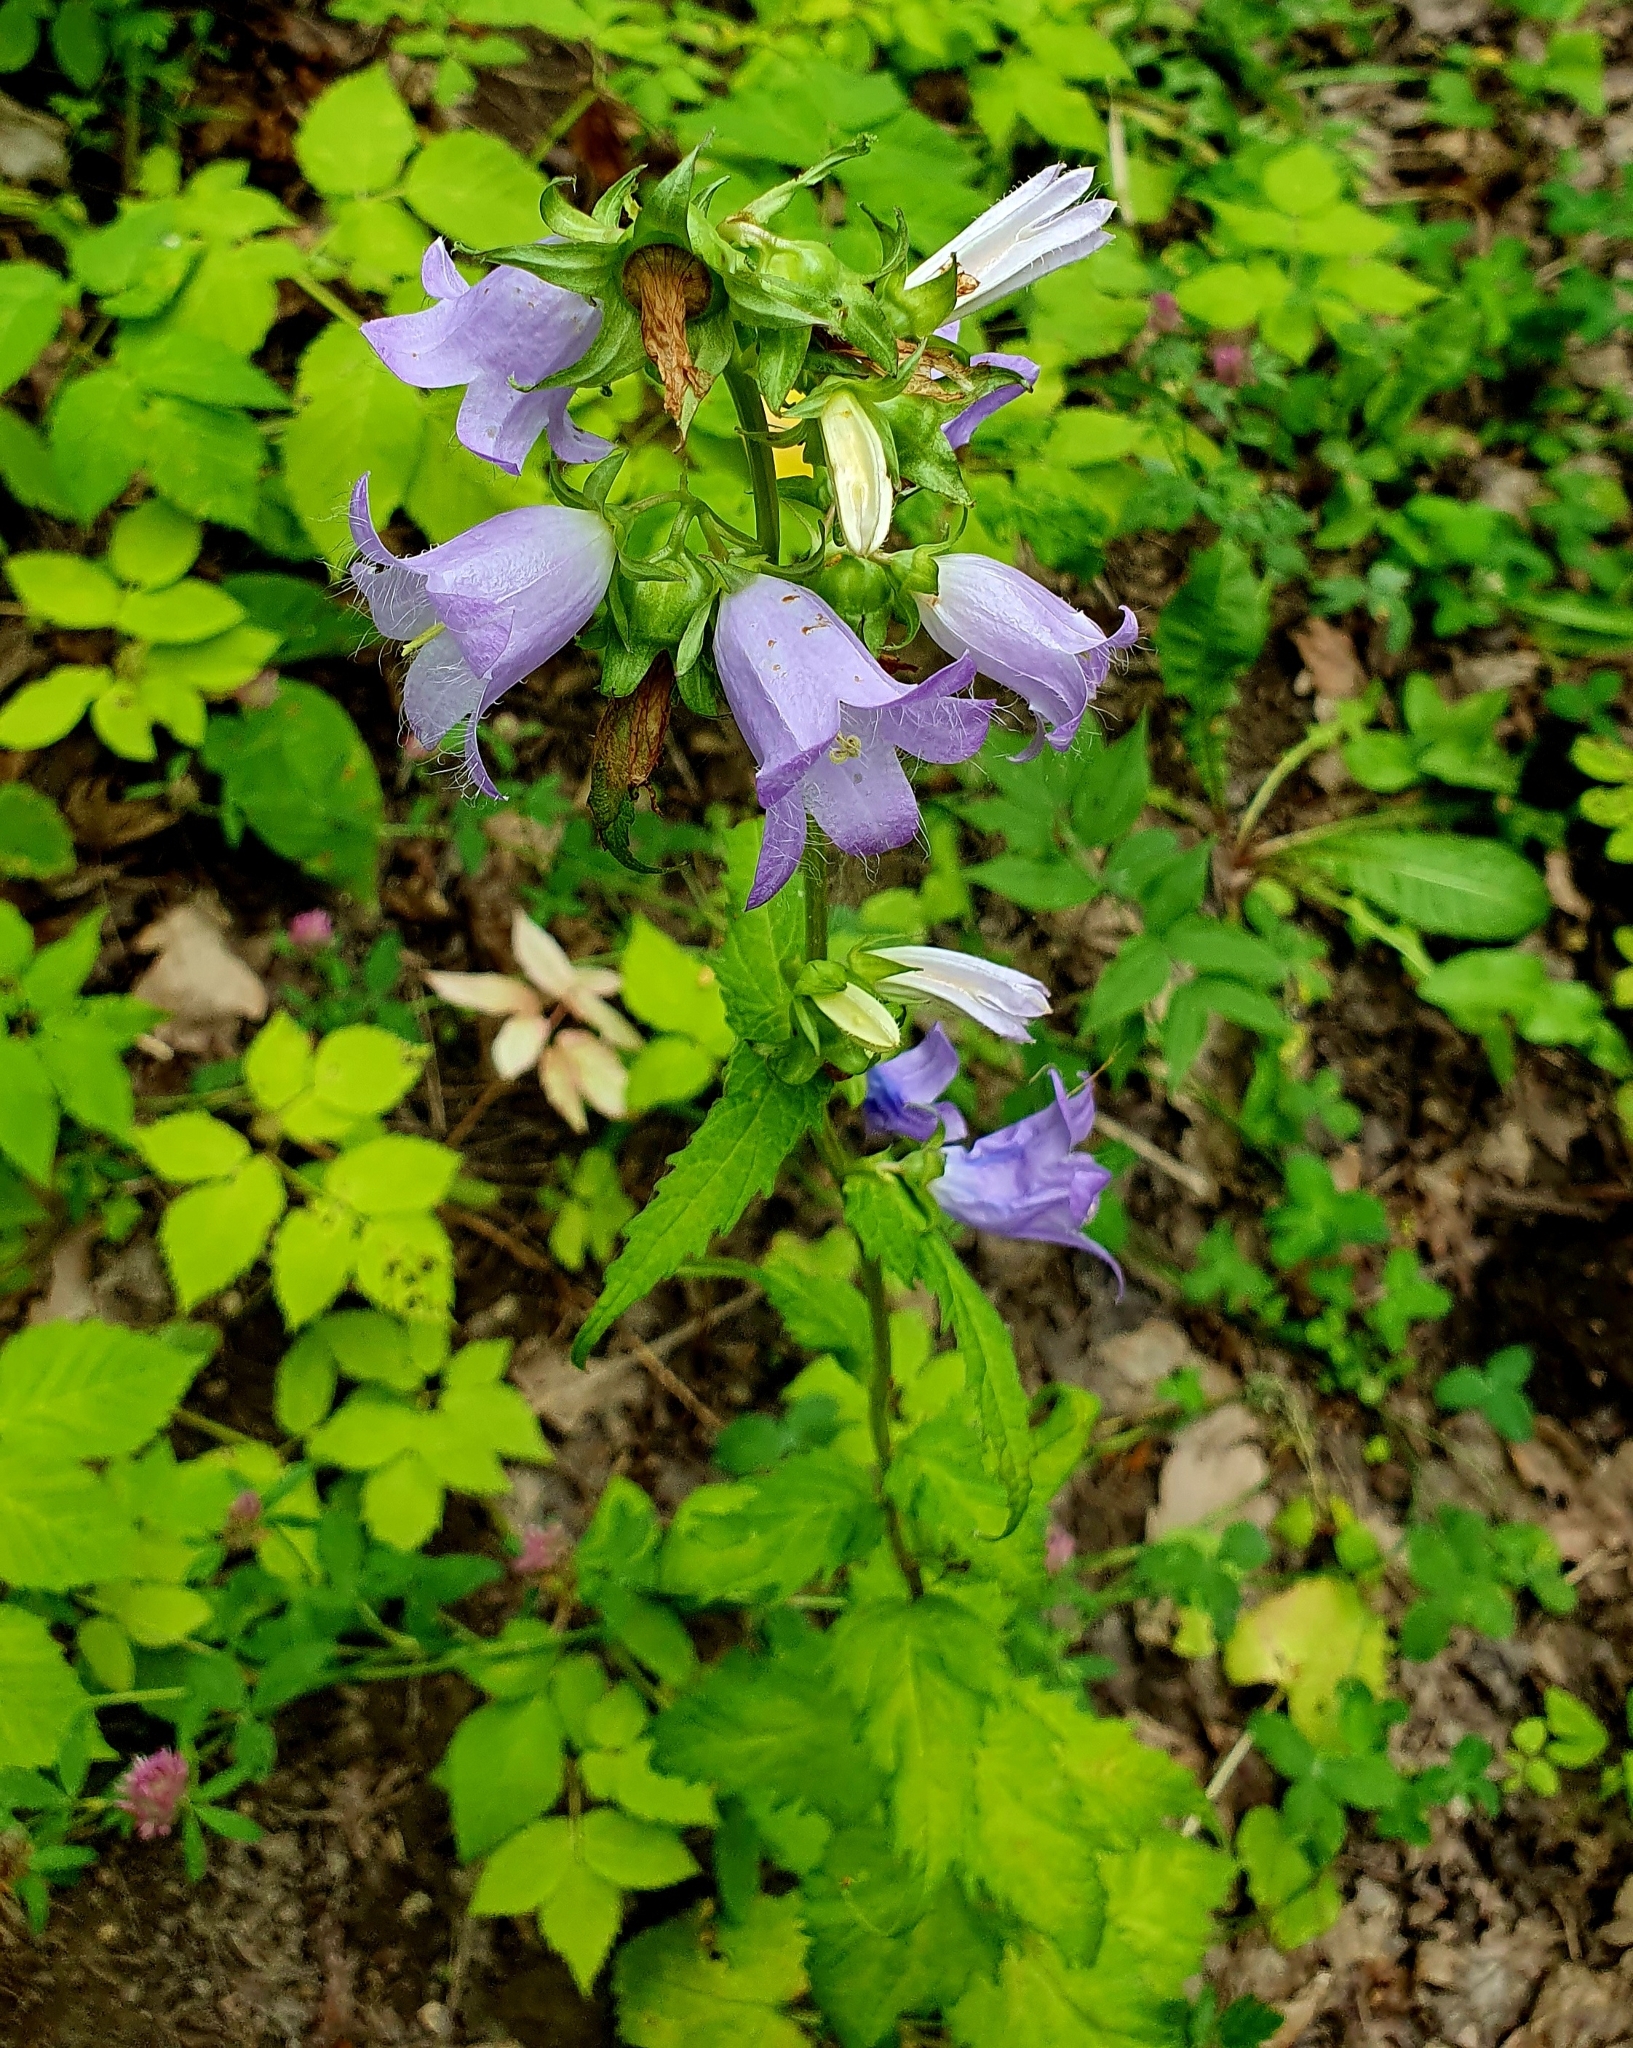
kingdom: Plantae
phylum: Tracheophyta
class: Magnoliopsida
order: Asterales
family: Campanulaceae
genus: Campanula
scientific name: Campanula trachelium
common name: Nettle-leaved bellflower
